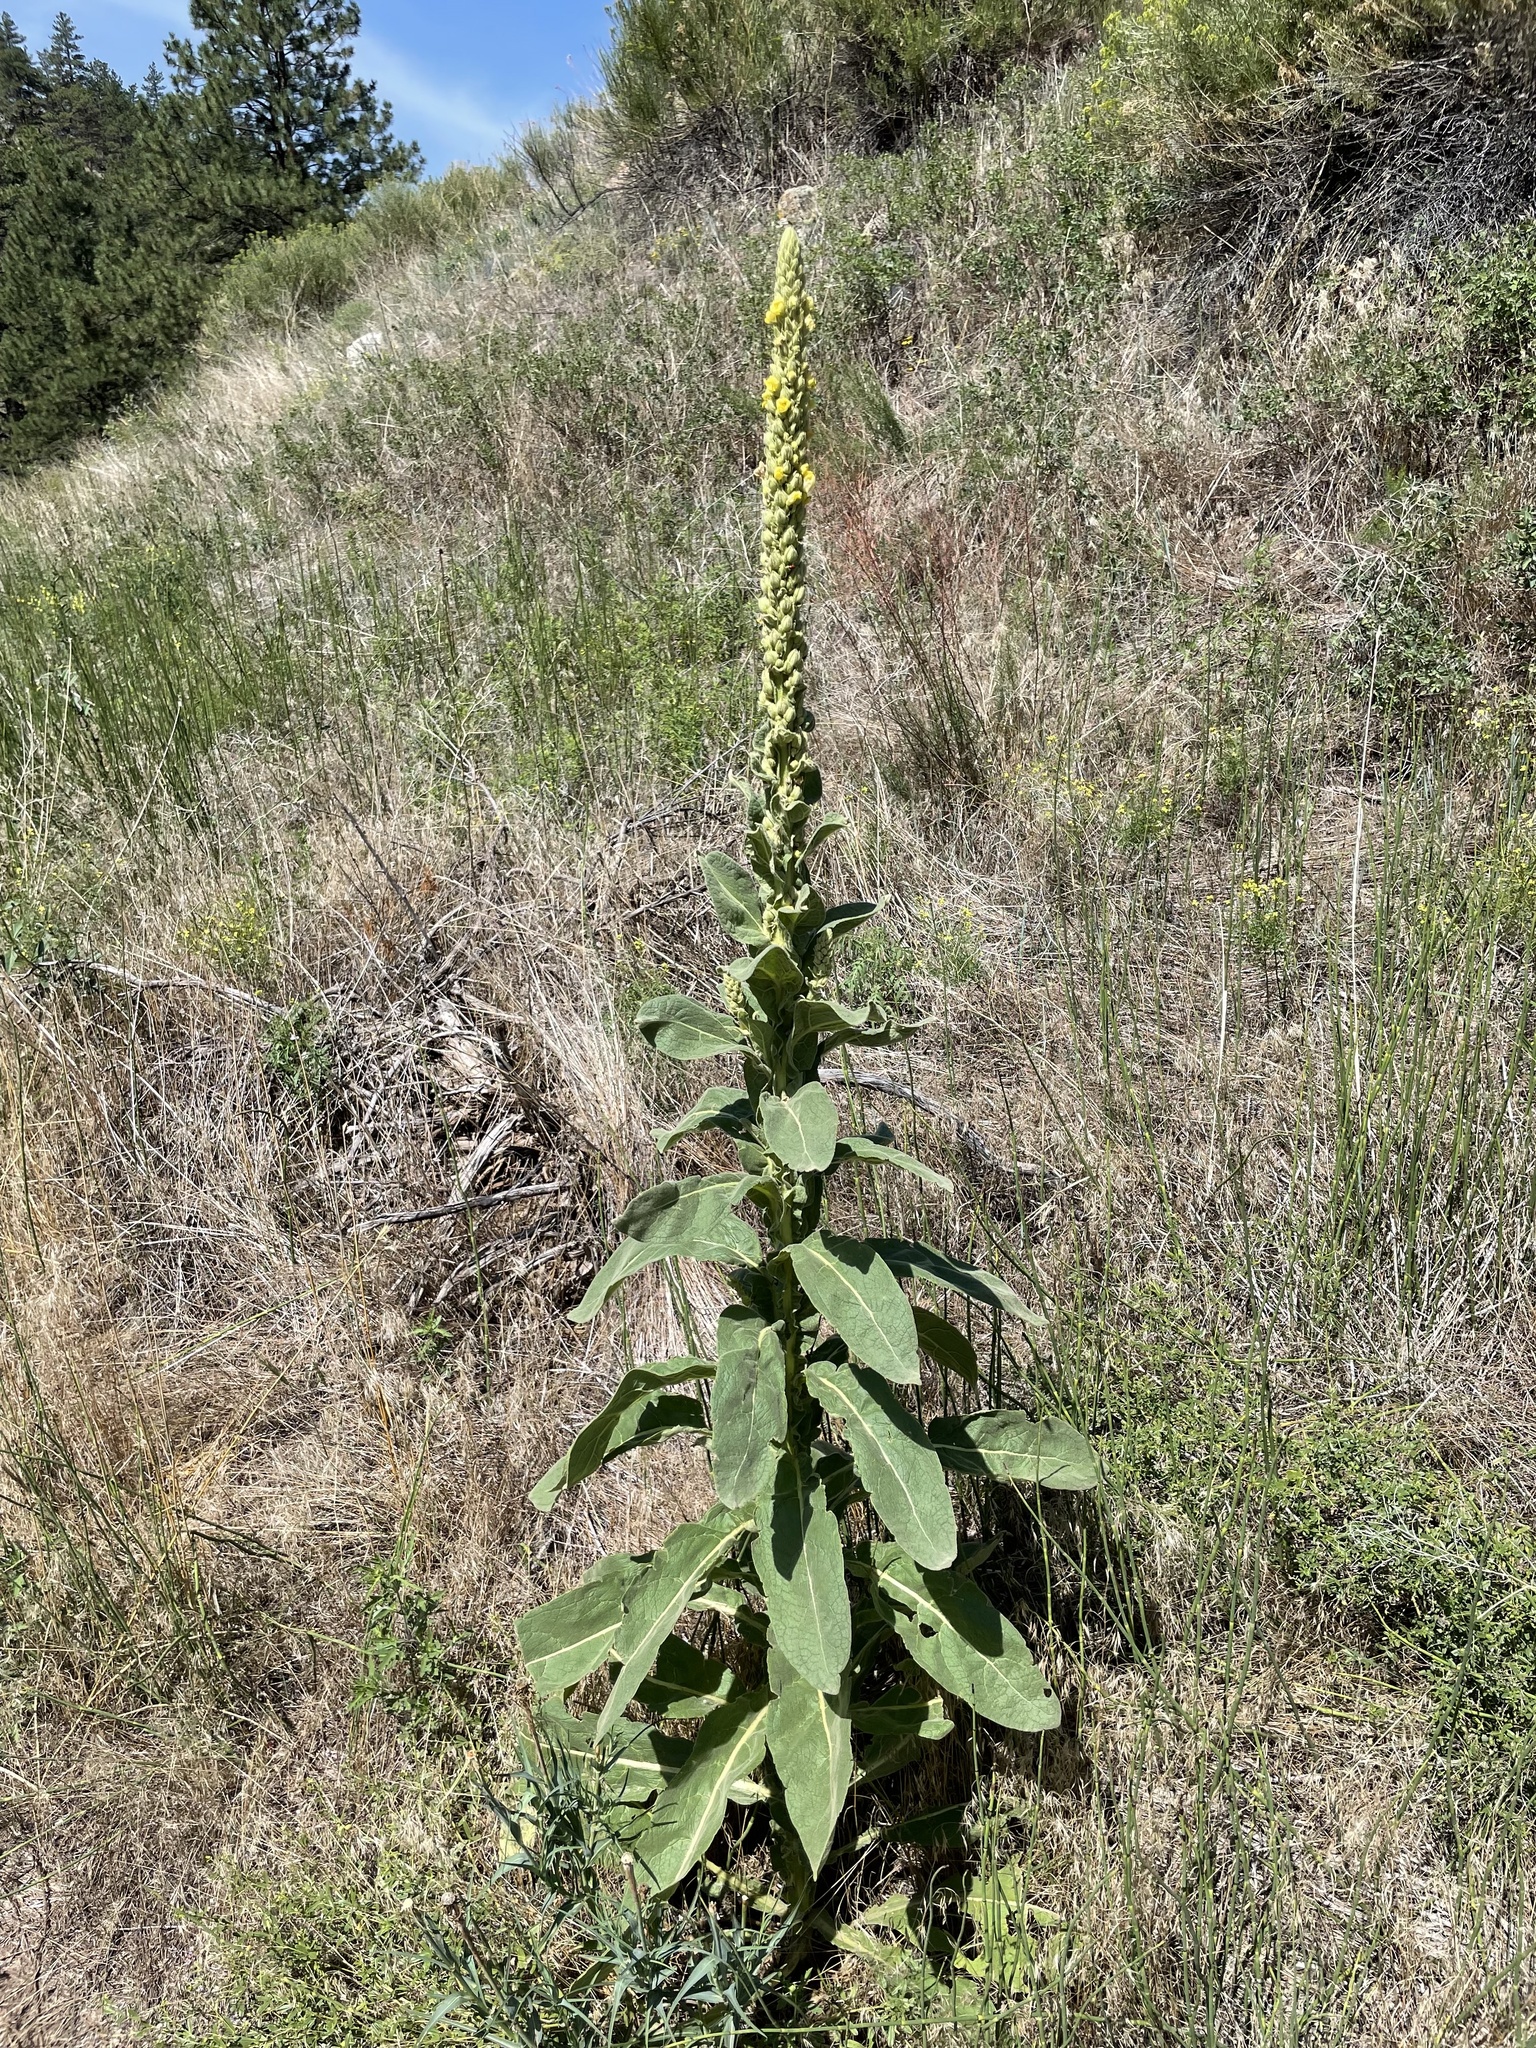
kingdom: Plantae
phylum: Tracheophyta
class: Magnoliopsida
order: Lamiales
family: Scrophulariaceae
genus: Verbascum
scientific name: Verbascum thapsus
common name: Common mullein
